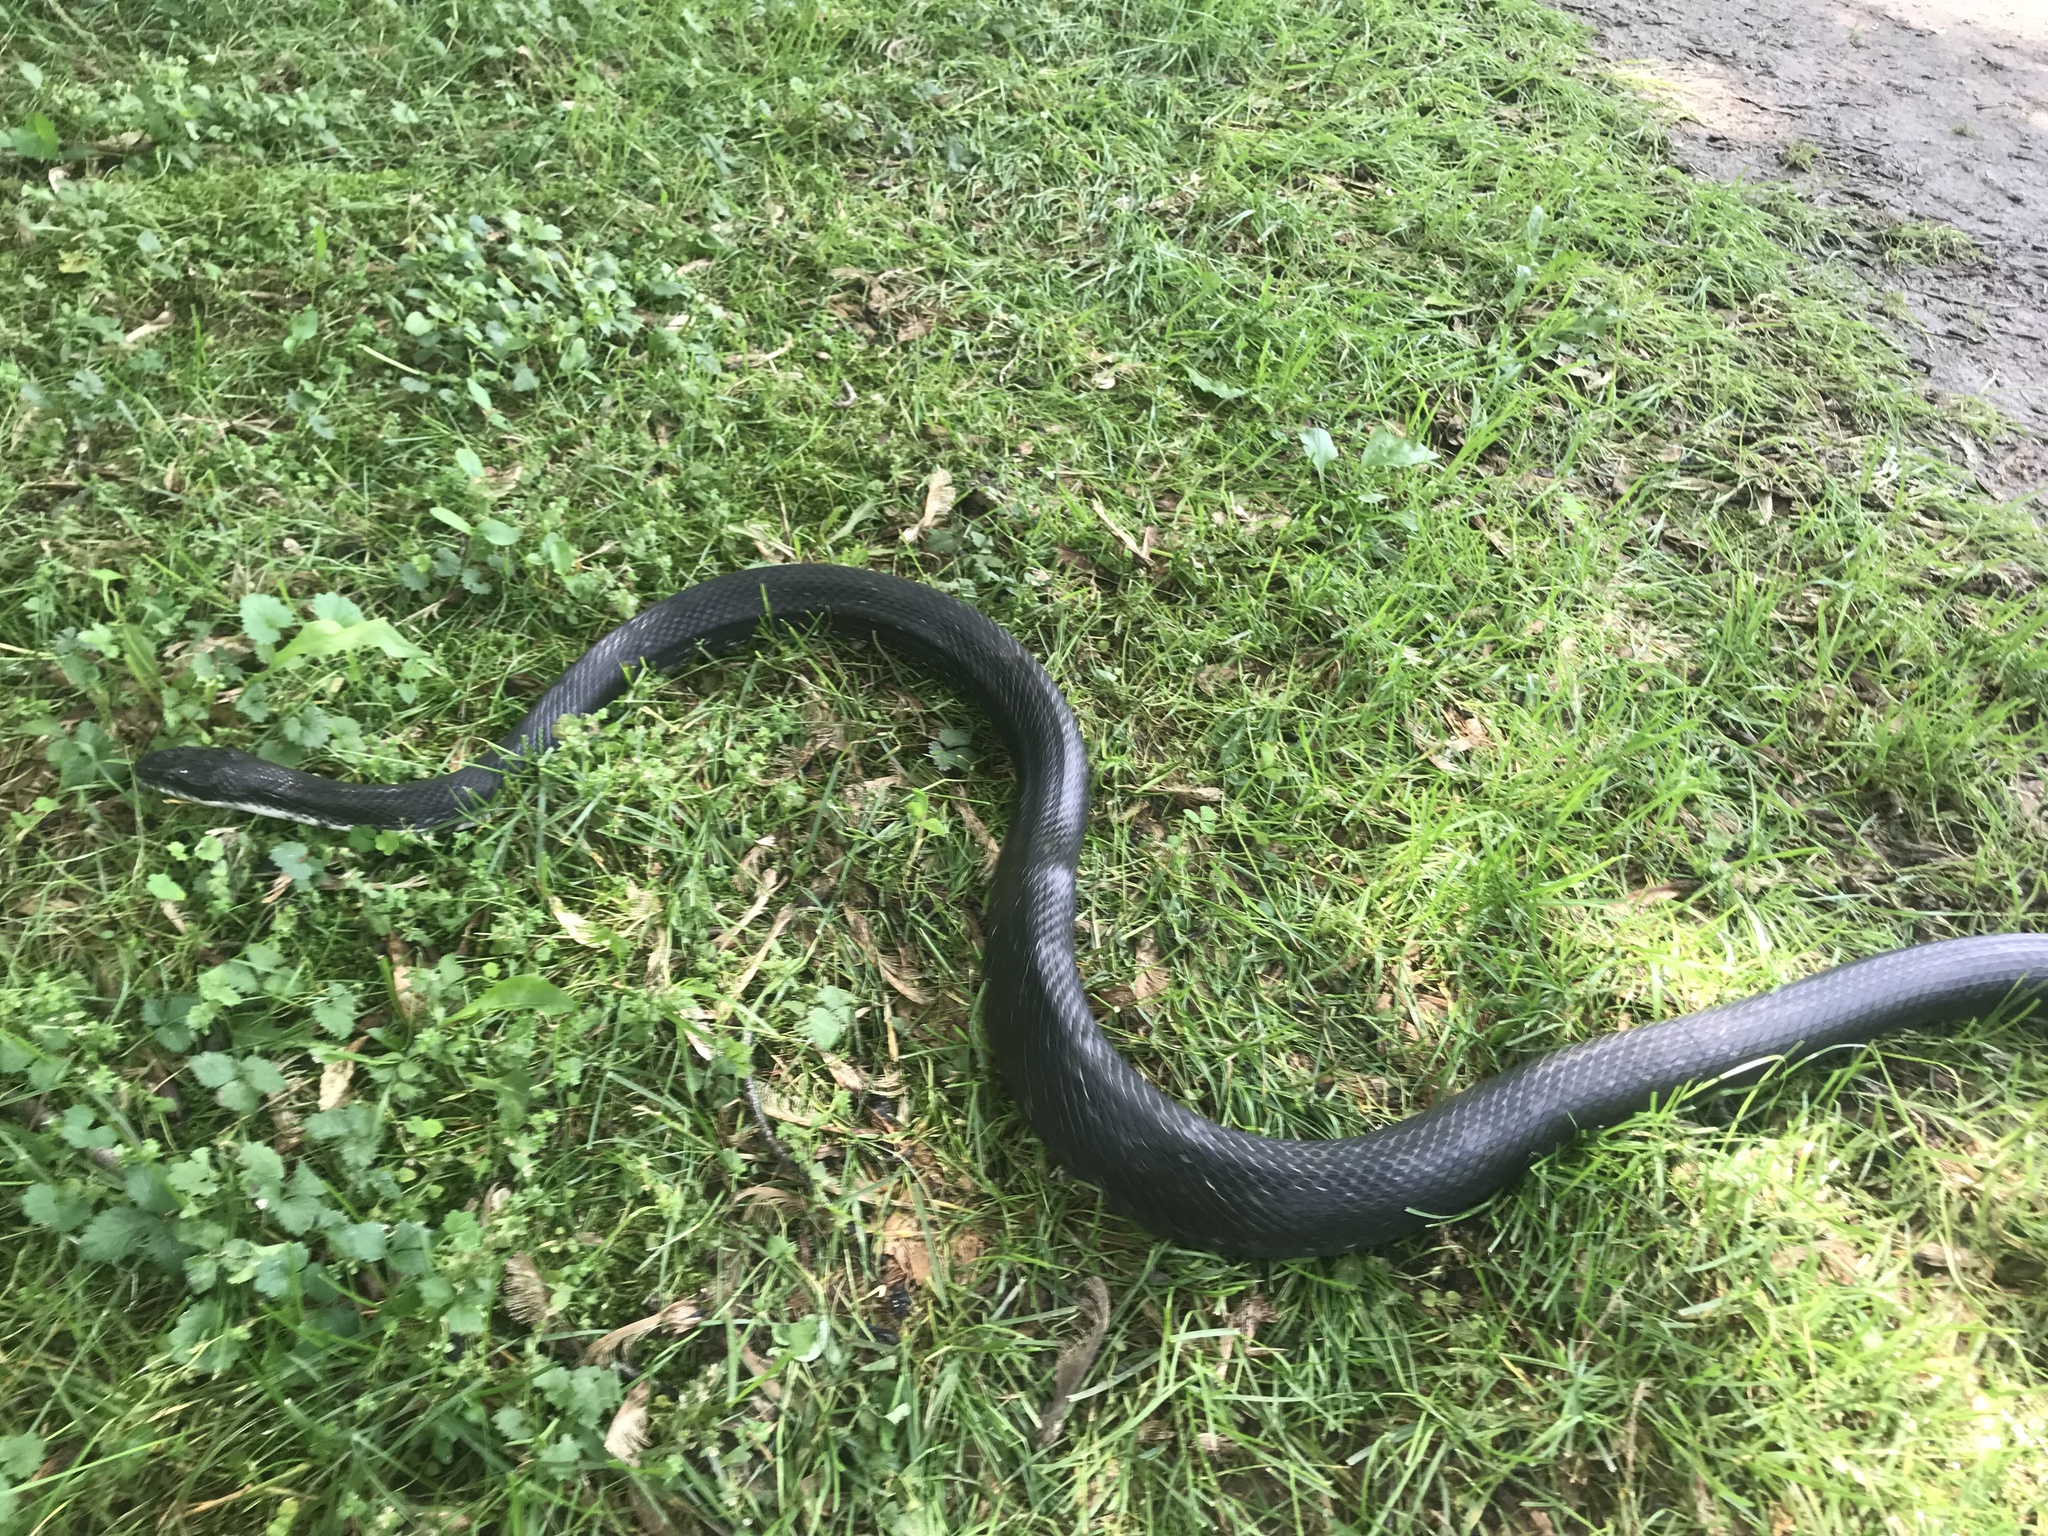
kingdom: Animalia
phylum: Chordata
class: Squamata
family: Colubridae
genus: Pantherophis
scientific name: Pantherophis alleghaniensis
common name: Eastern rat snake
